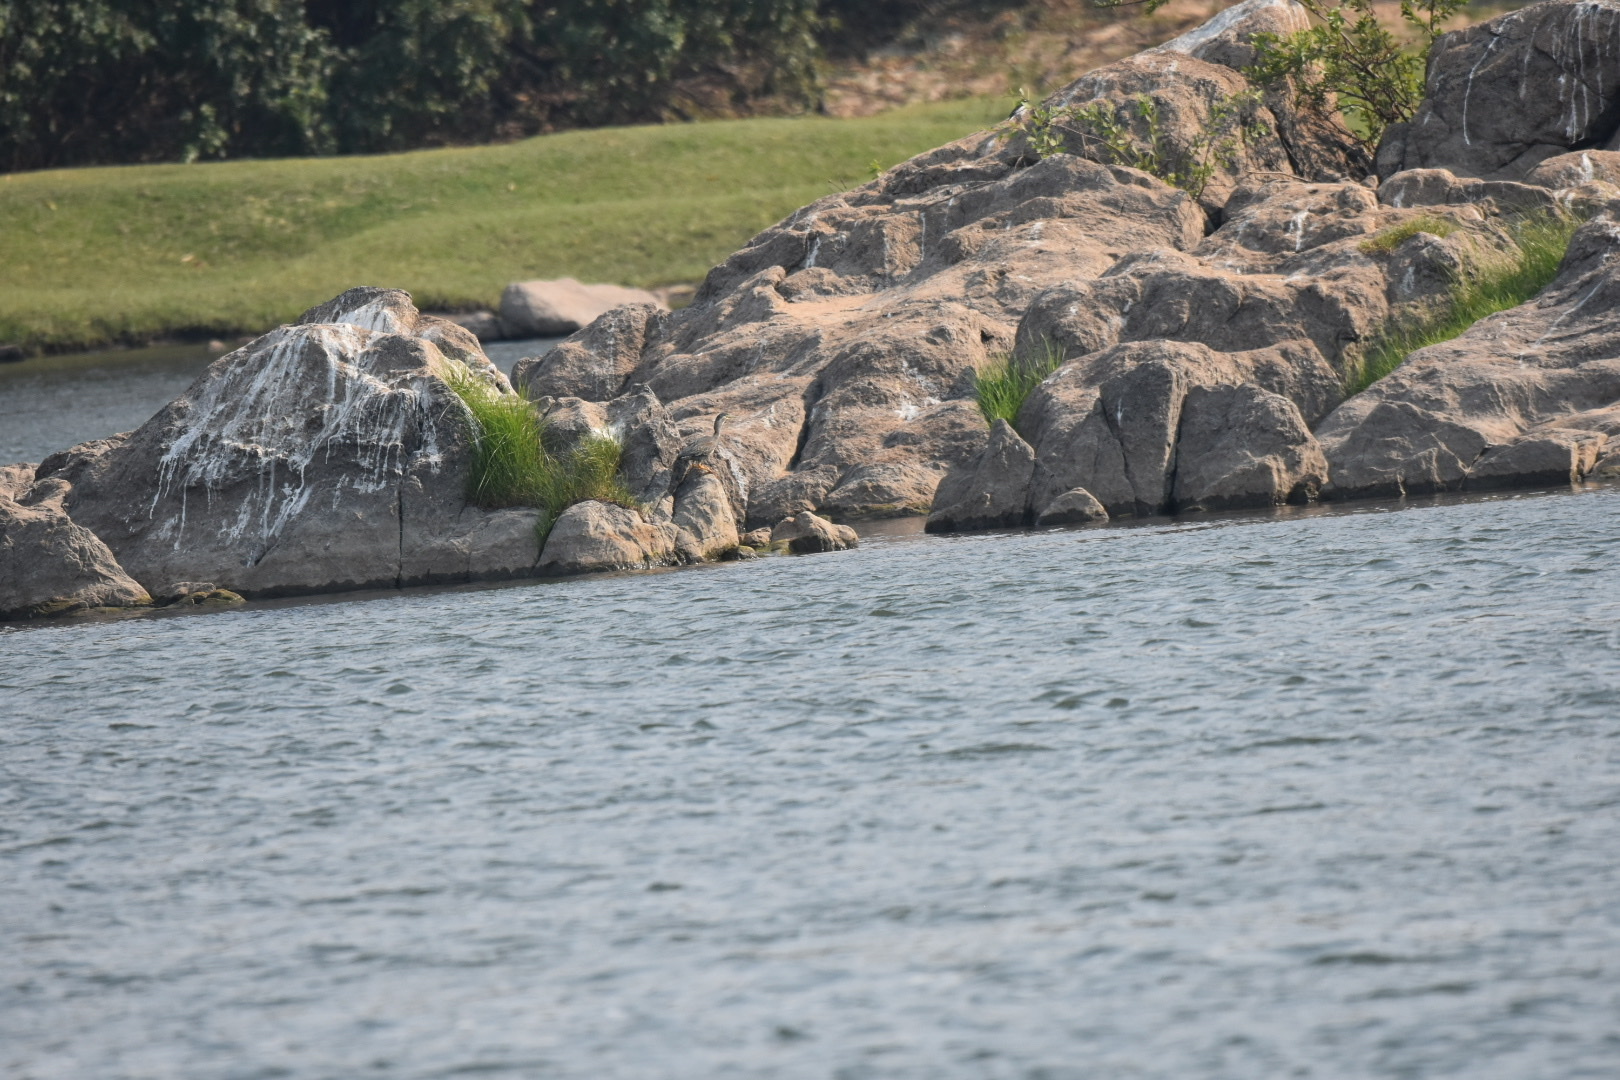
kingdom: Animalia
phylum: Chordata
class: Aves
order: Pelecaniformes
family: Ardeidae
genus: Butorides
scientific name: Butorides striata
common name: Striated heron
